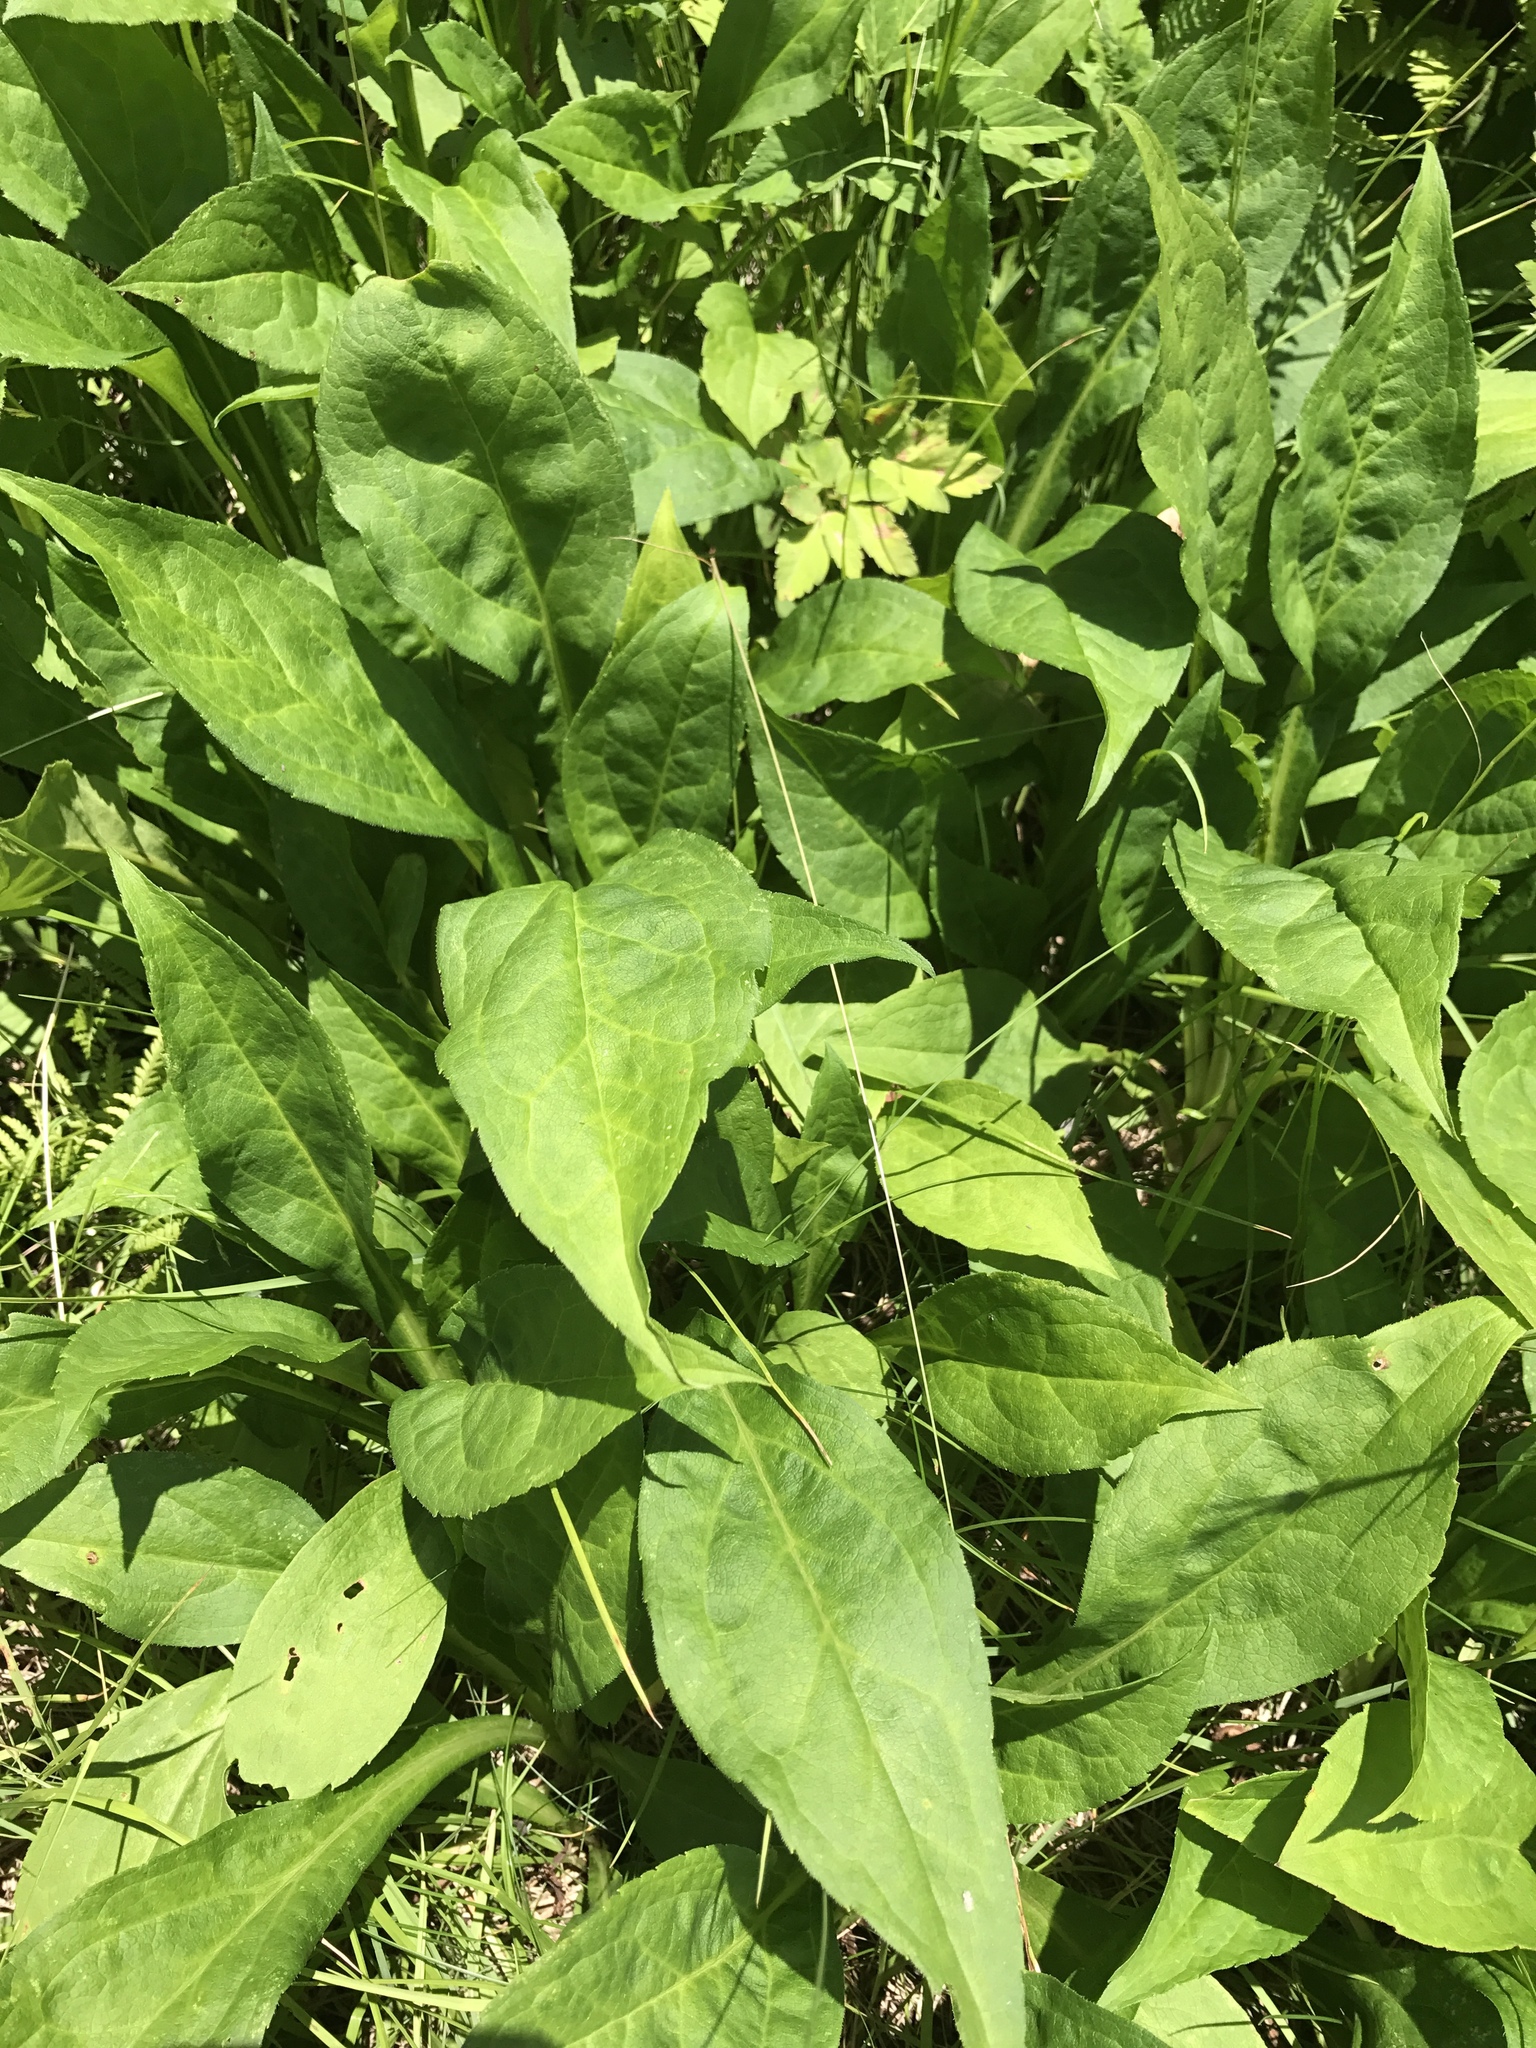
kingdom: Plantae
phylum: Tracheophyta
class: Magnoliopsida
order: Asterales
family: Asteraceae
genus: Solidago
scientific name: Solidago glomerata
